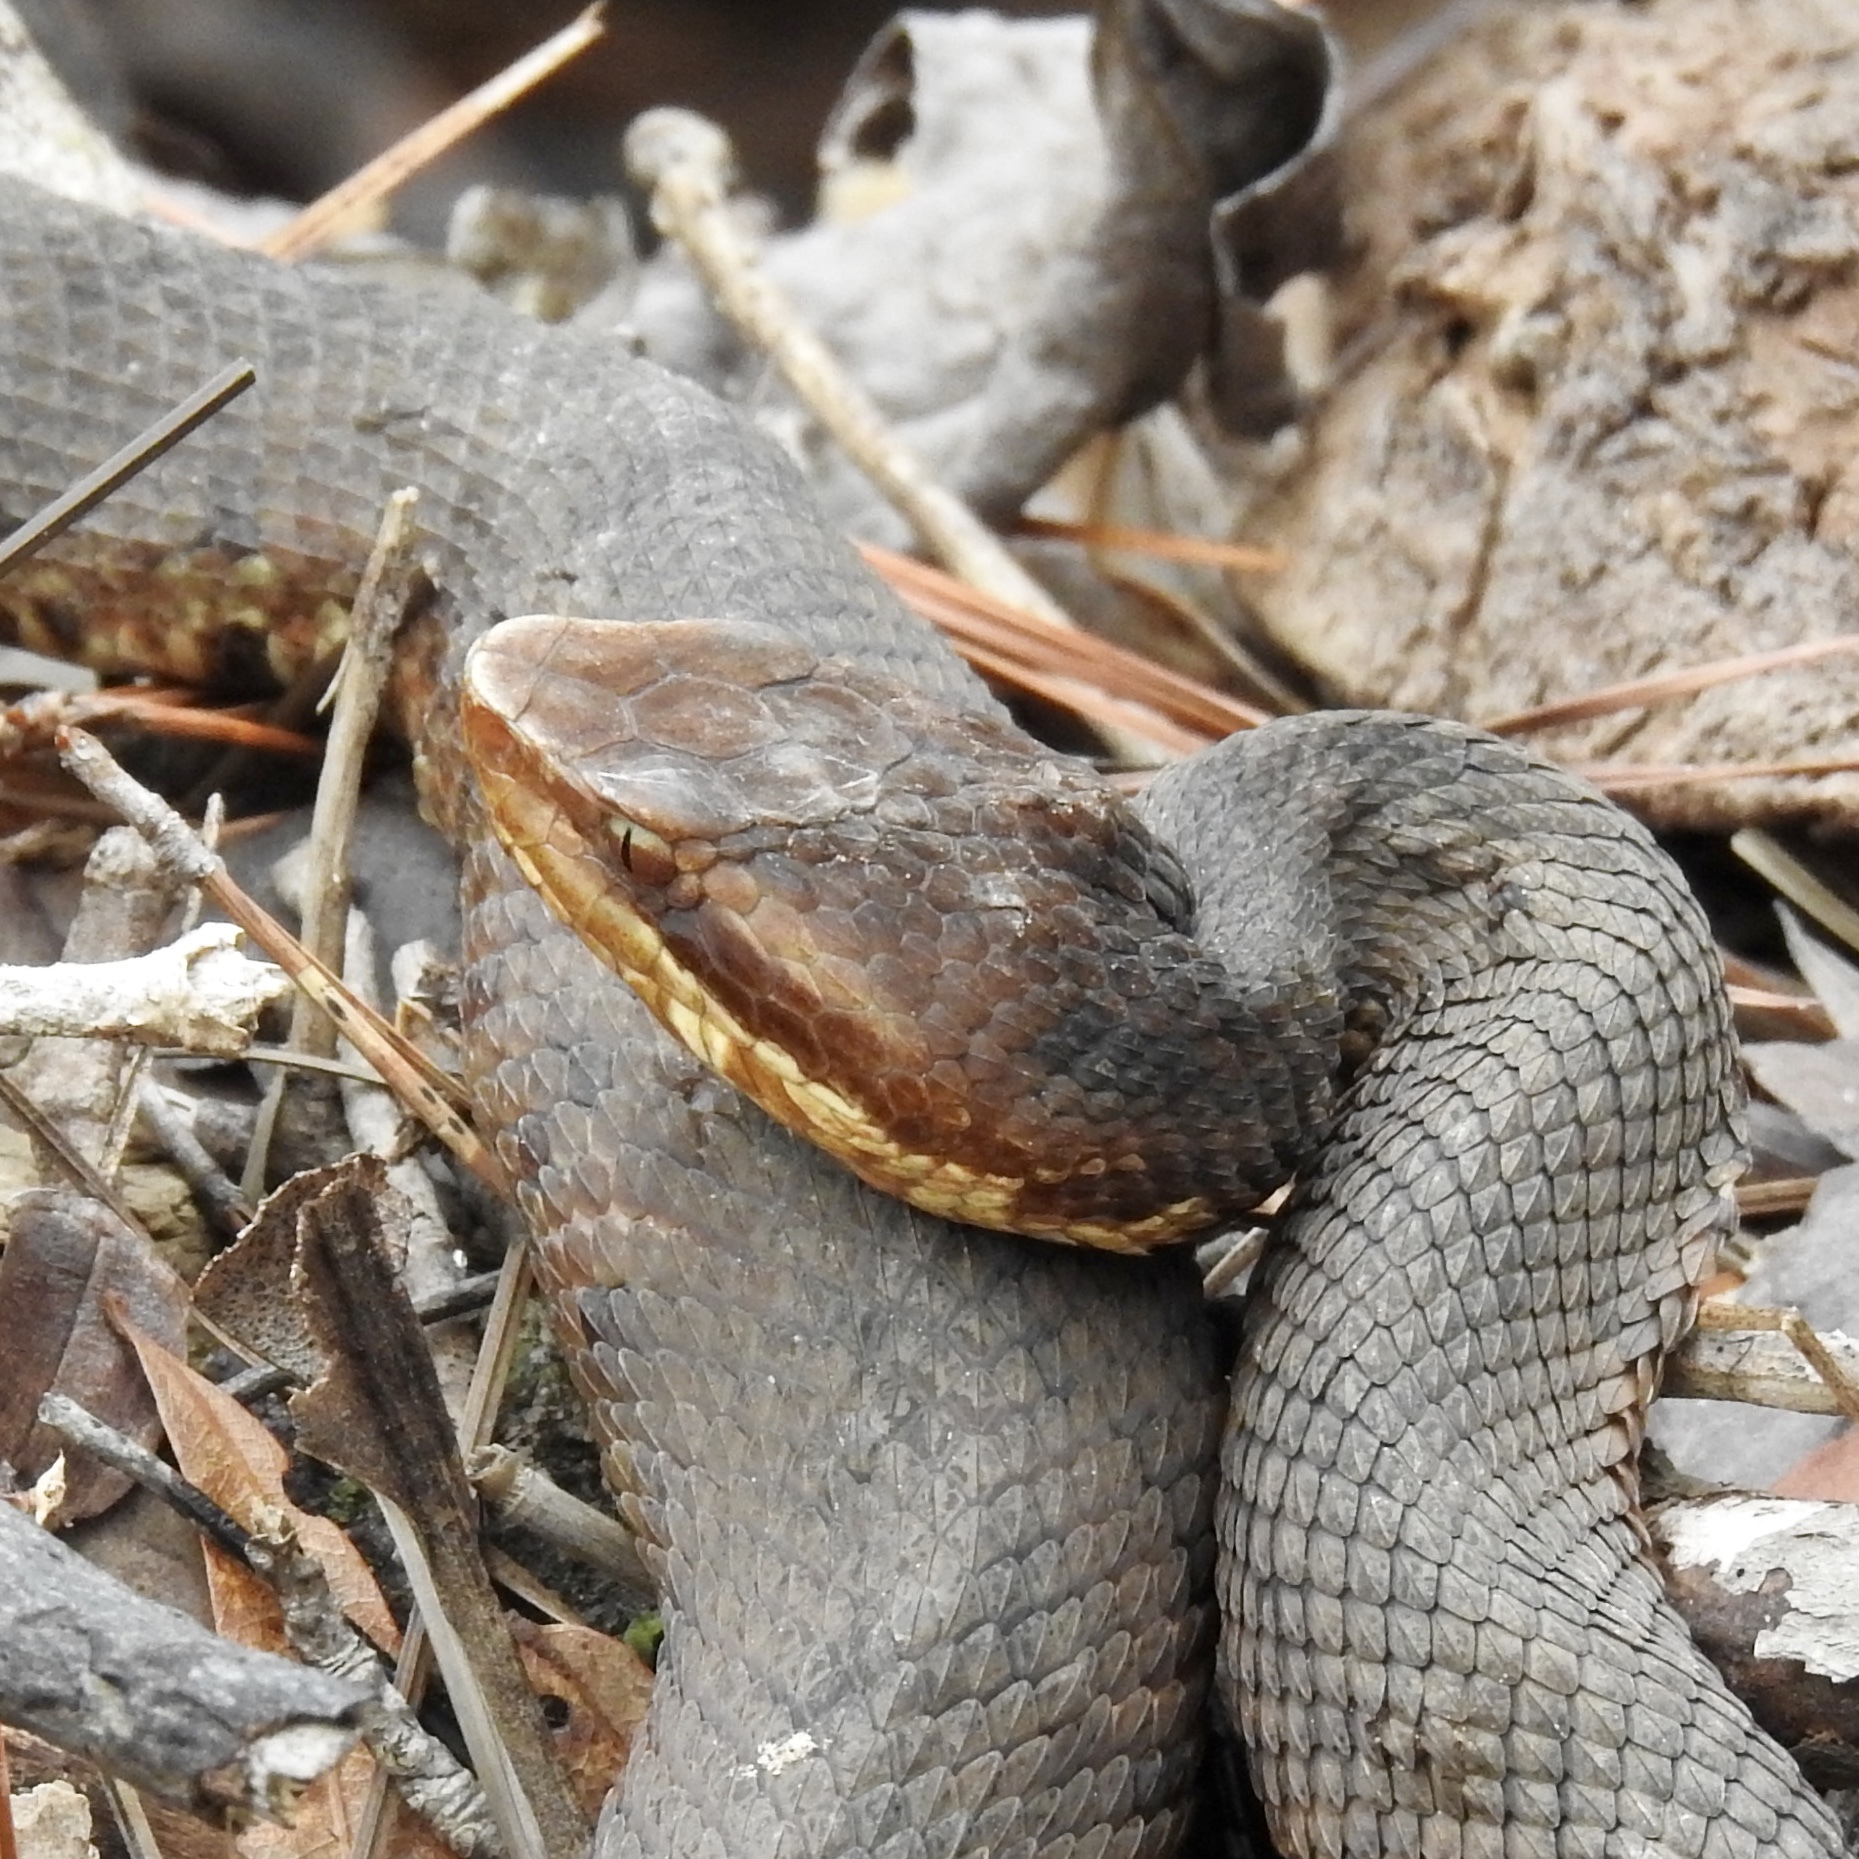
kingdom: Animalia
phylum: Chordata
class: Squamata
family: Viperidae
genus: Agkistrodon
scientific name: Agkistrodon piscivorus
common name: Cottonmouth
